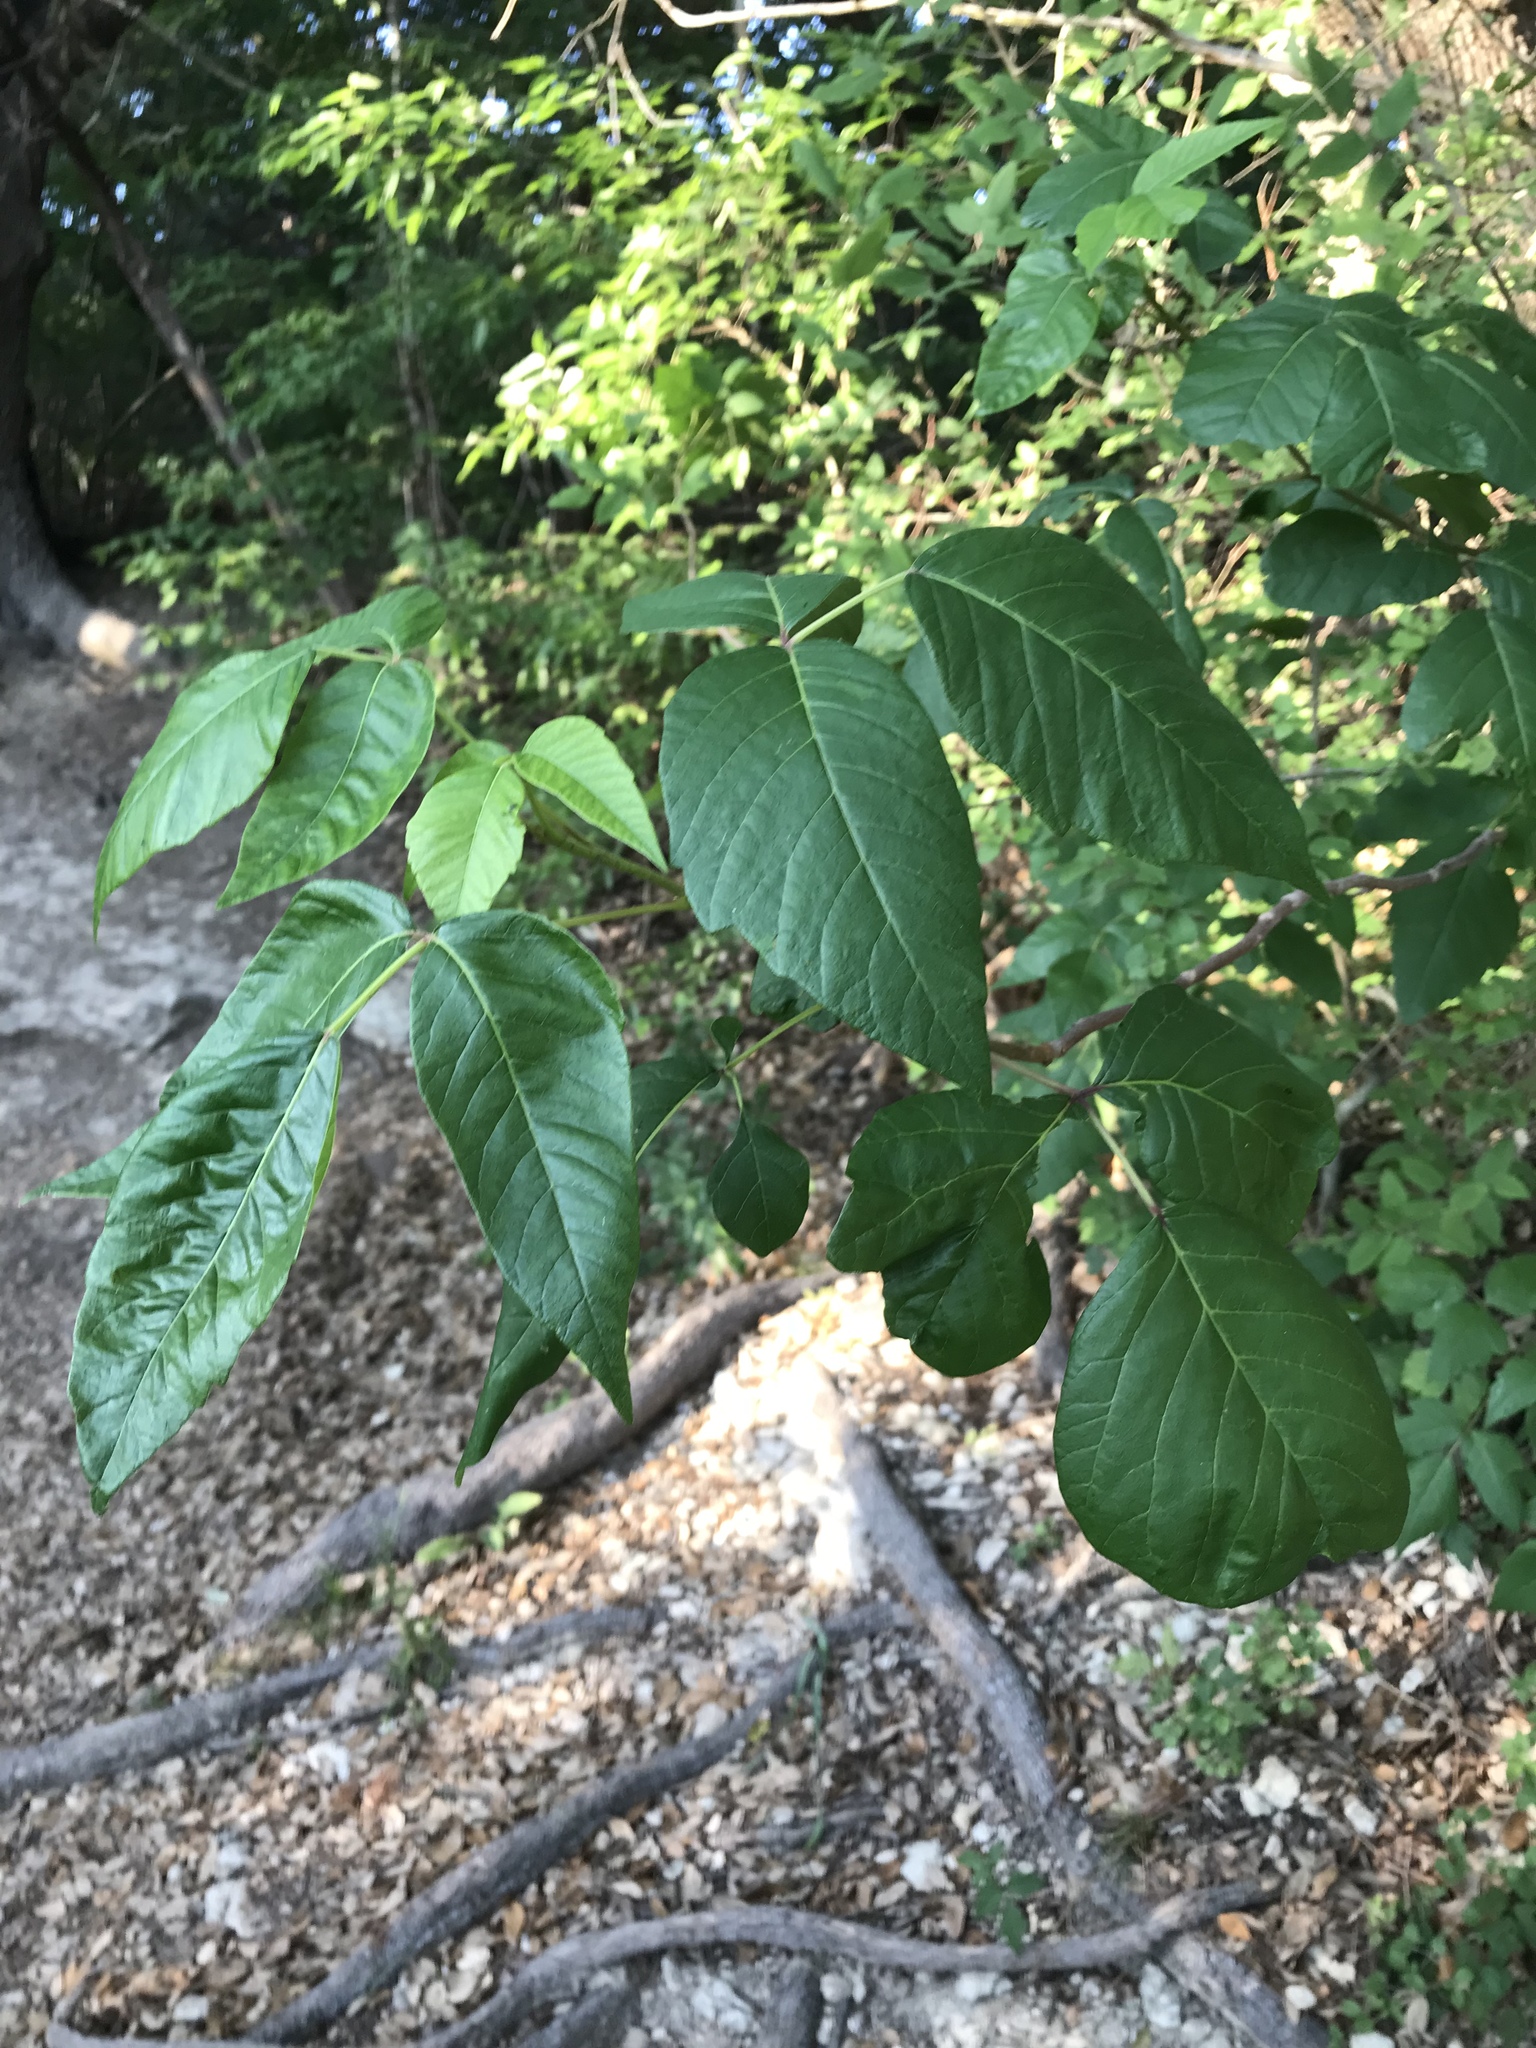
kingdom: Plantae
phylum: Tracheophyta
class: Magnoliopsida
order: Sapindales
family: Anacardiaceae
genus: Toxicodendron
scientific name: Toxicodendron radicans
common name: Poison ivy
